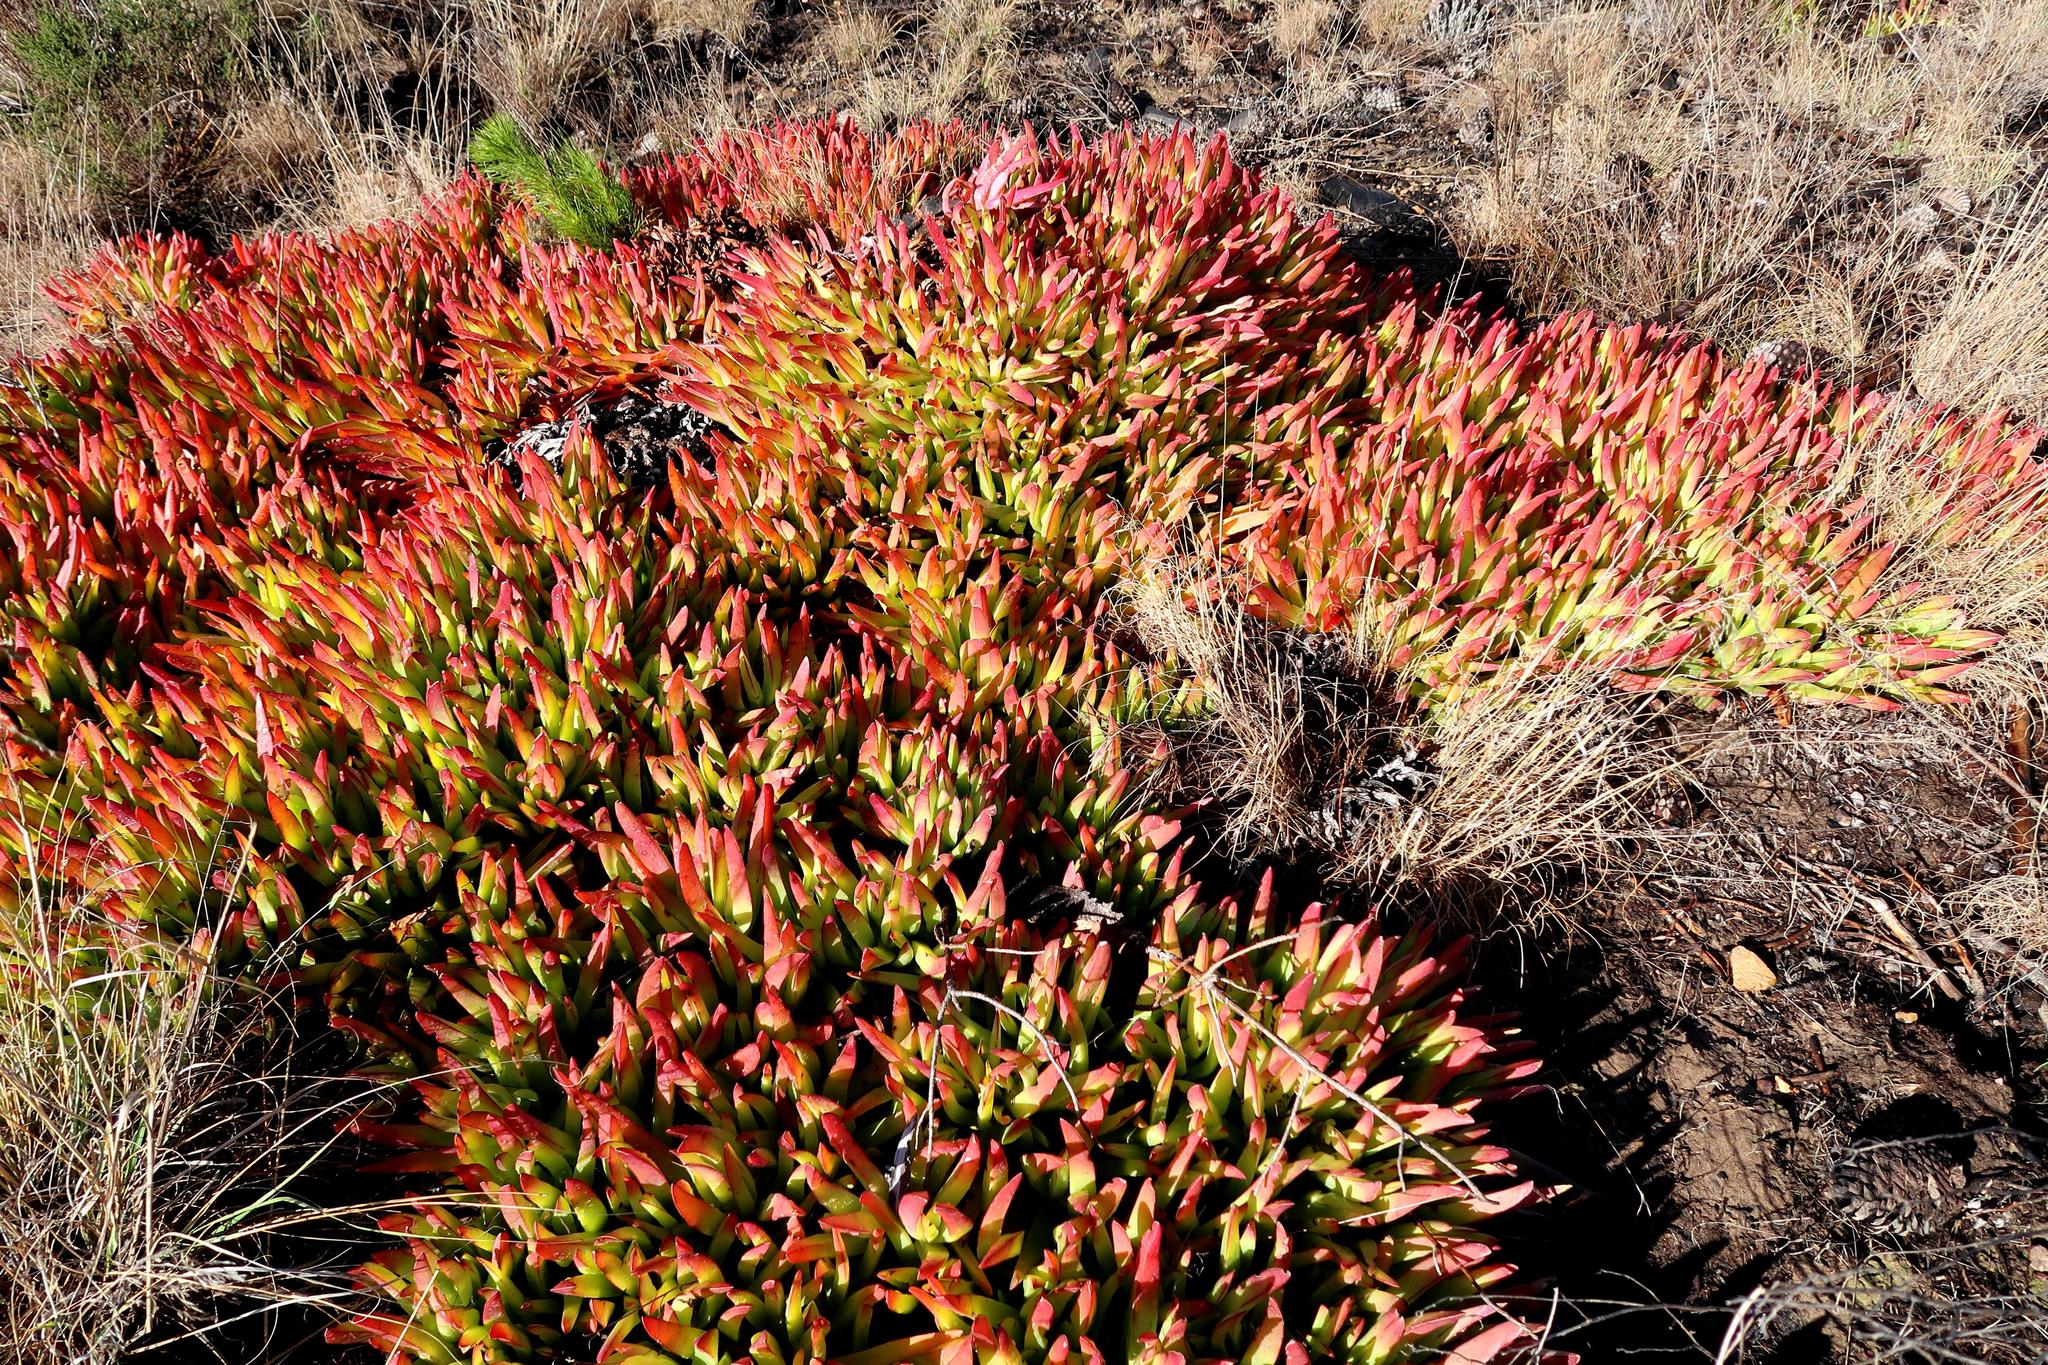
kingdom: Plantae
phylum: Tracheophyta
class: Magnoliopsida
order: Caryophyllales
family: Aizoaceae
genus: Carpobrotus
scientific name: Carpobrotus edulis
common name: Hottentot-fig
